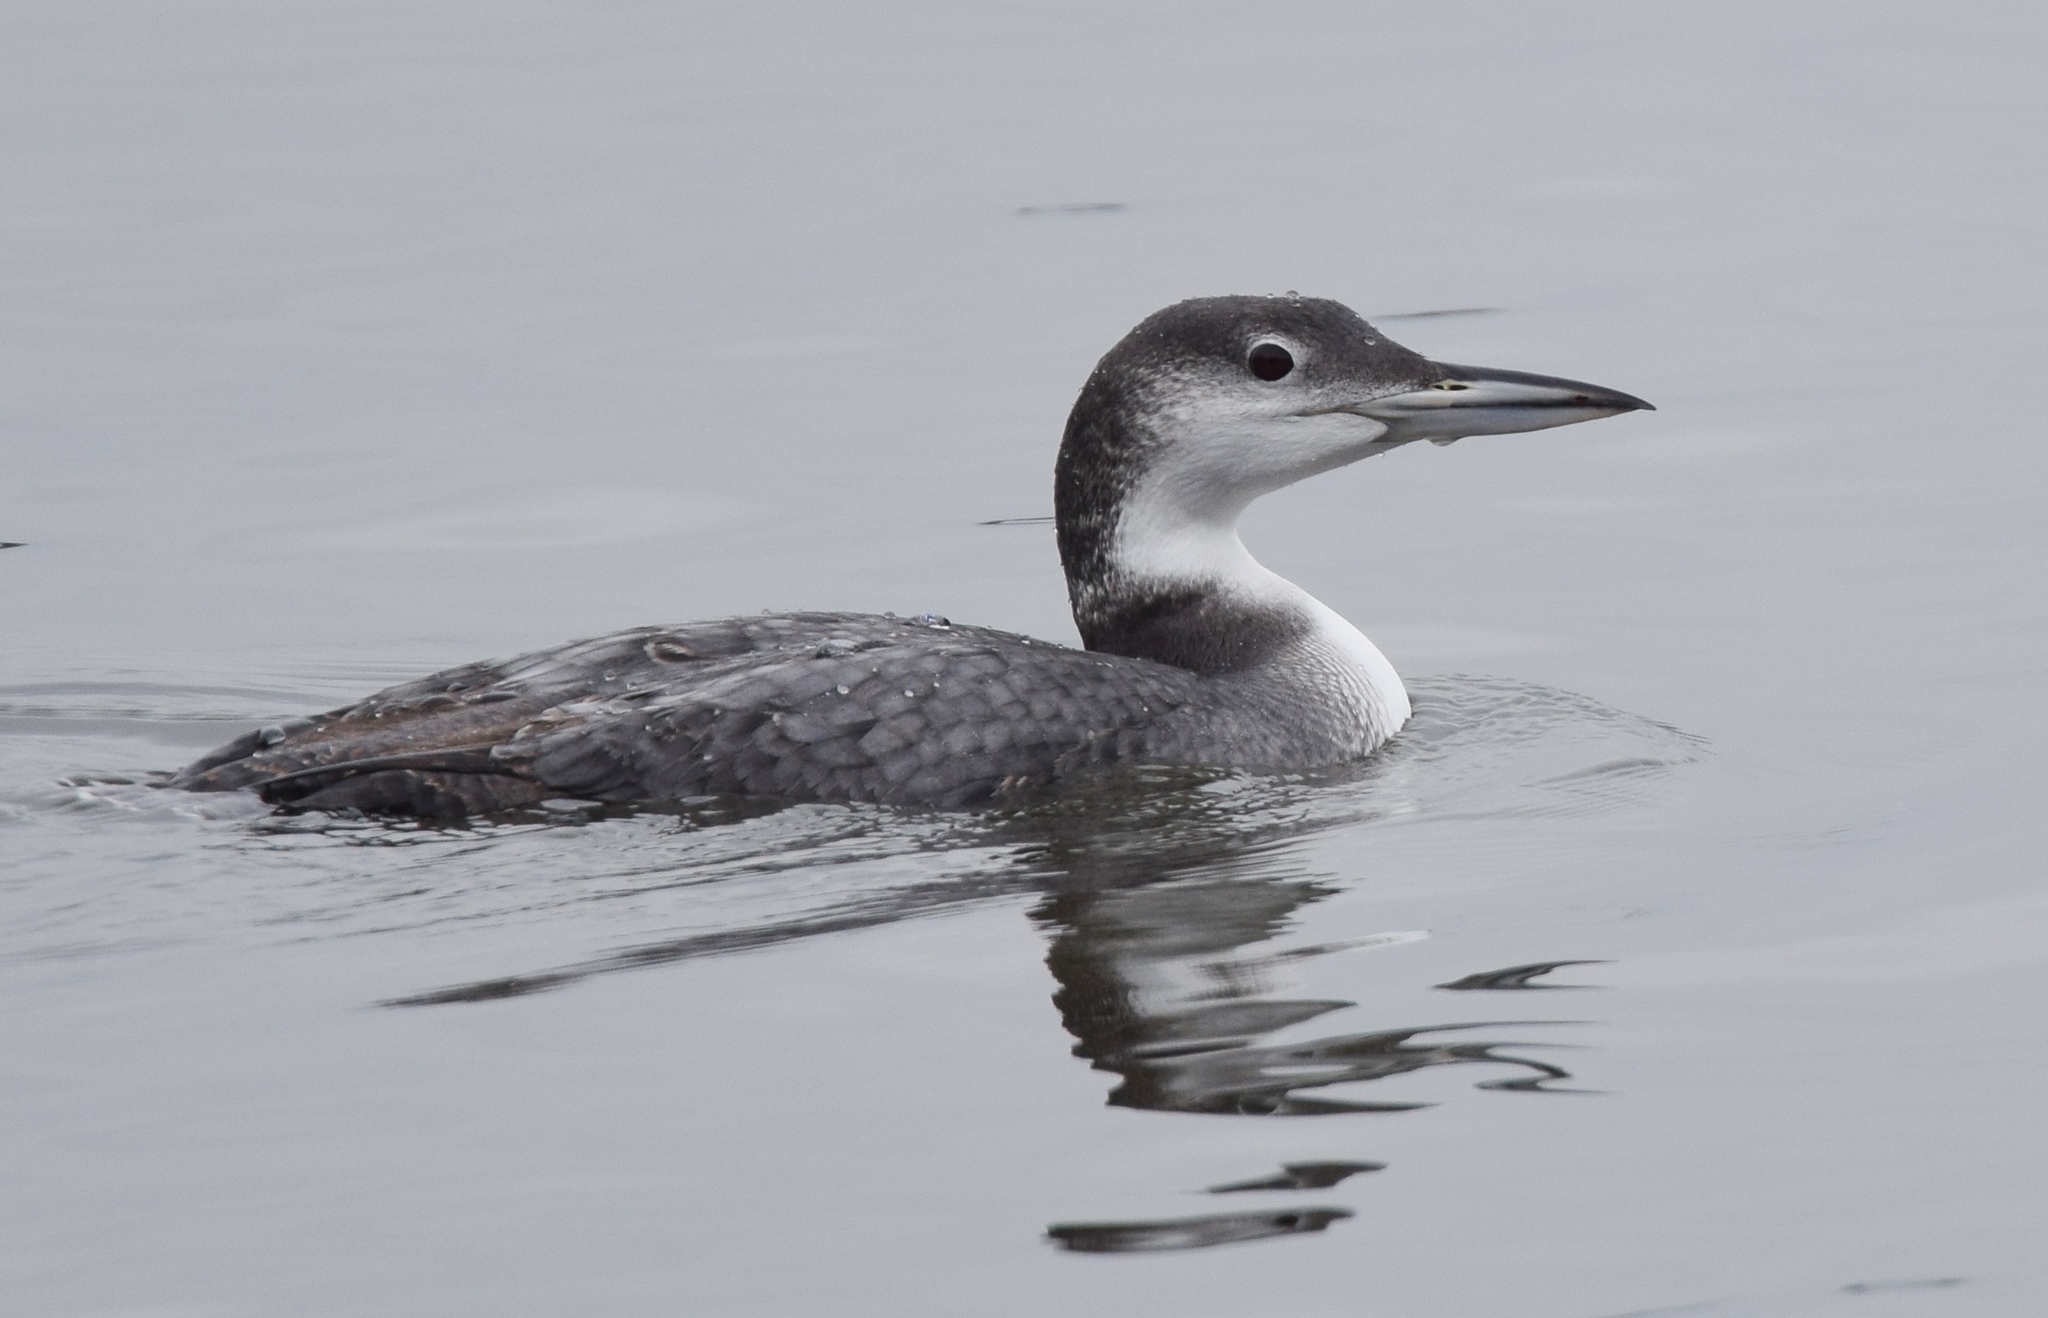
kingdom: Animalia
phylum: Chordata
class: Aves
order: Gaviiformes
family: Gaviidae
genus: Gavia
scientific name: Gavia immer
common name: Common loon
